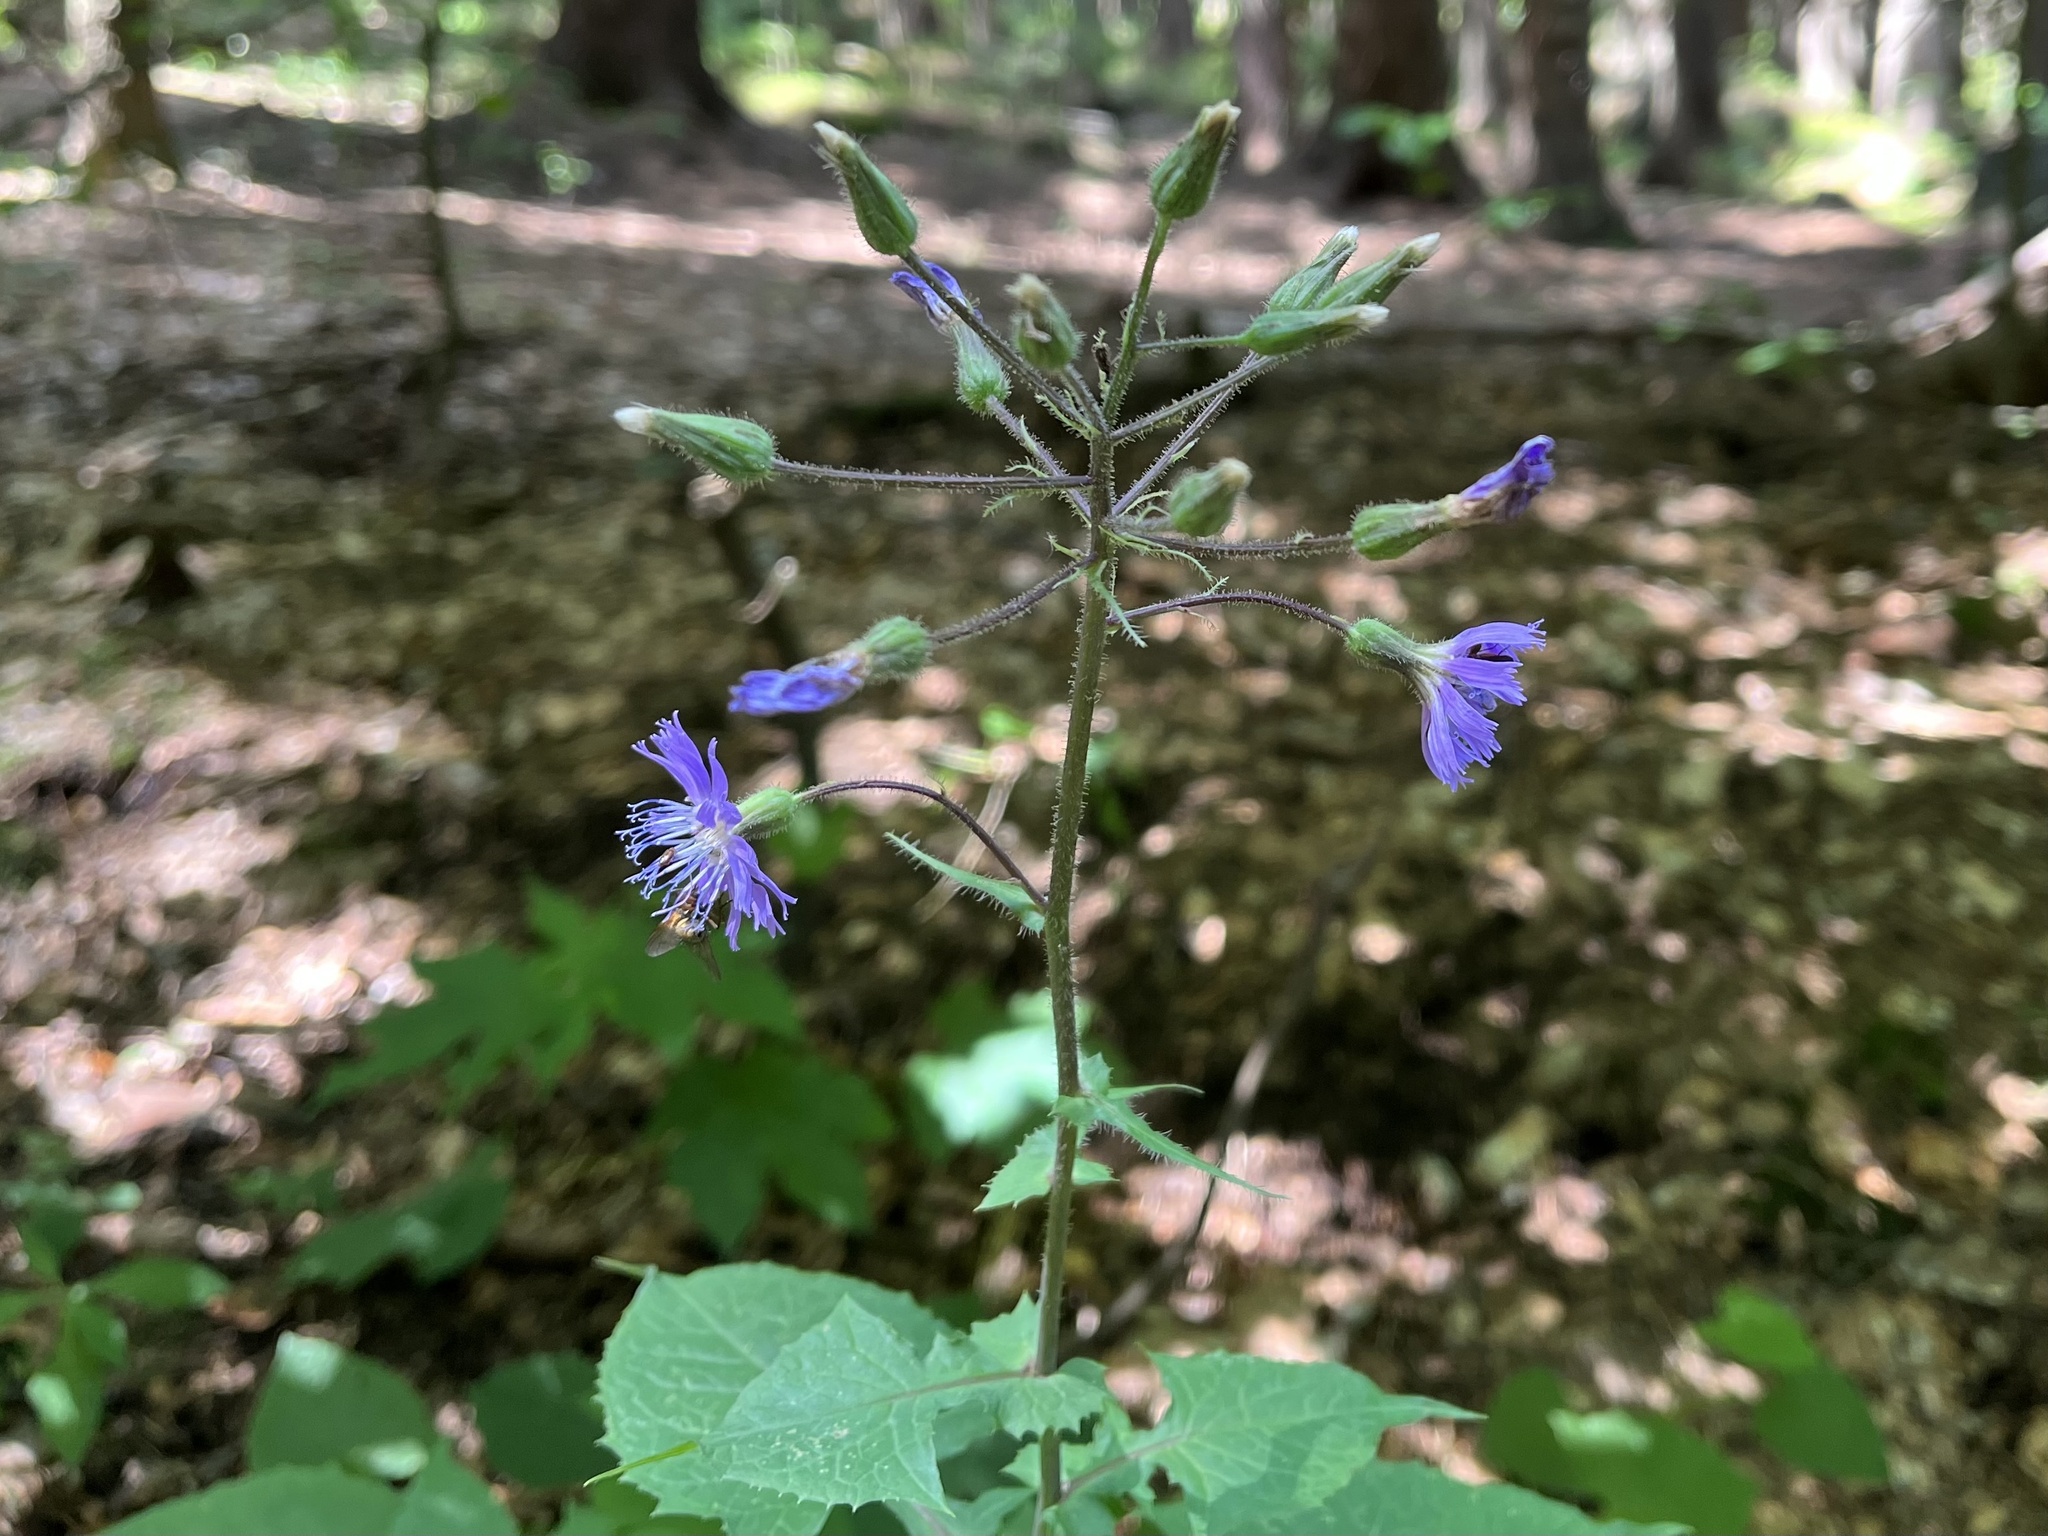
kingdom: Plantae
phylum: Tracheophyta
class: Magnoliopsida
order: Asterales
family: Asteraceae
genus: Cicerbita
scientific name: Cicerbita alpina
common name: Alpine blue-sow-thistle
